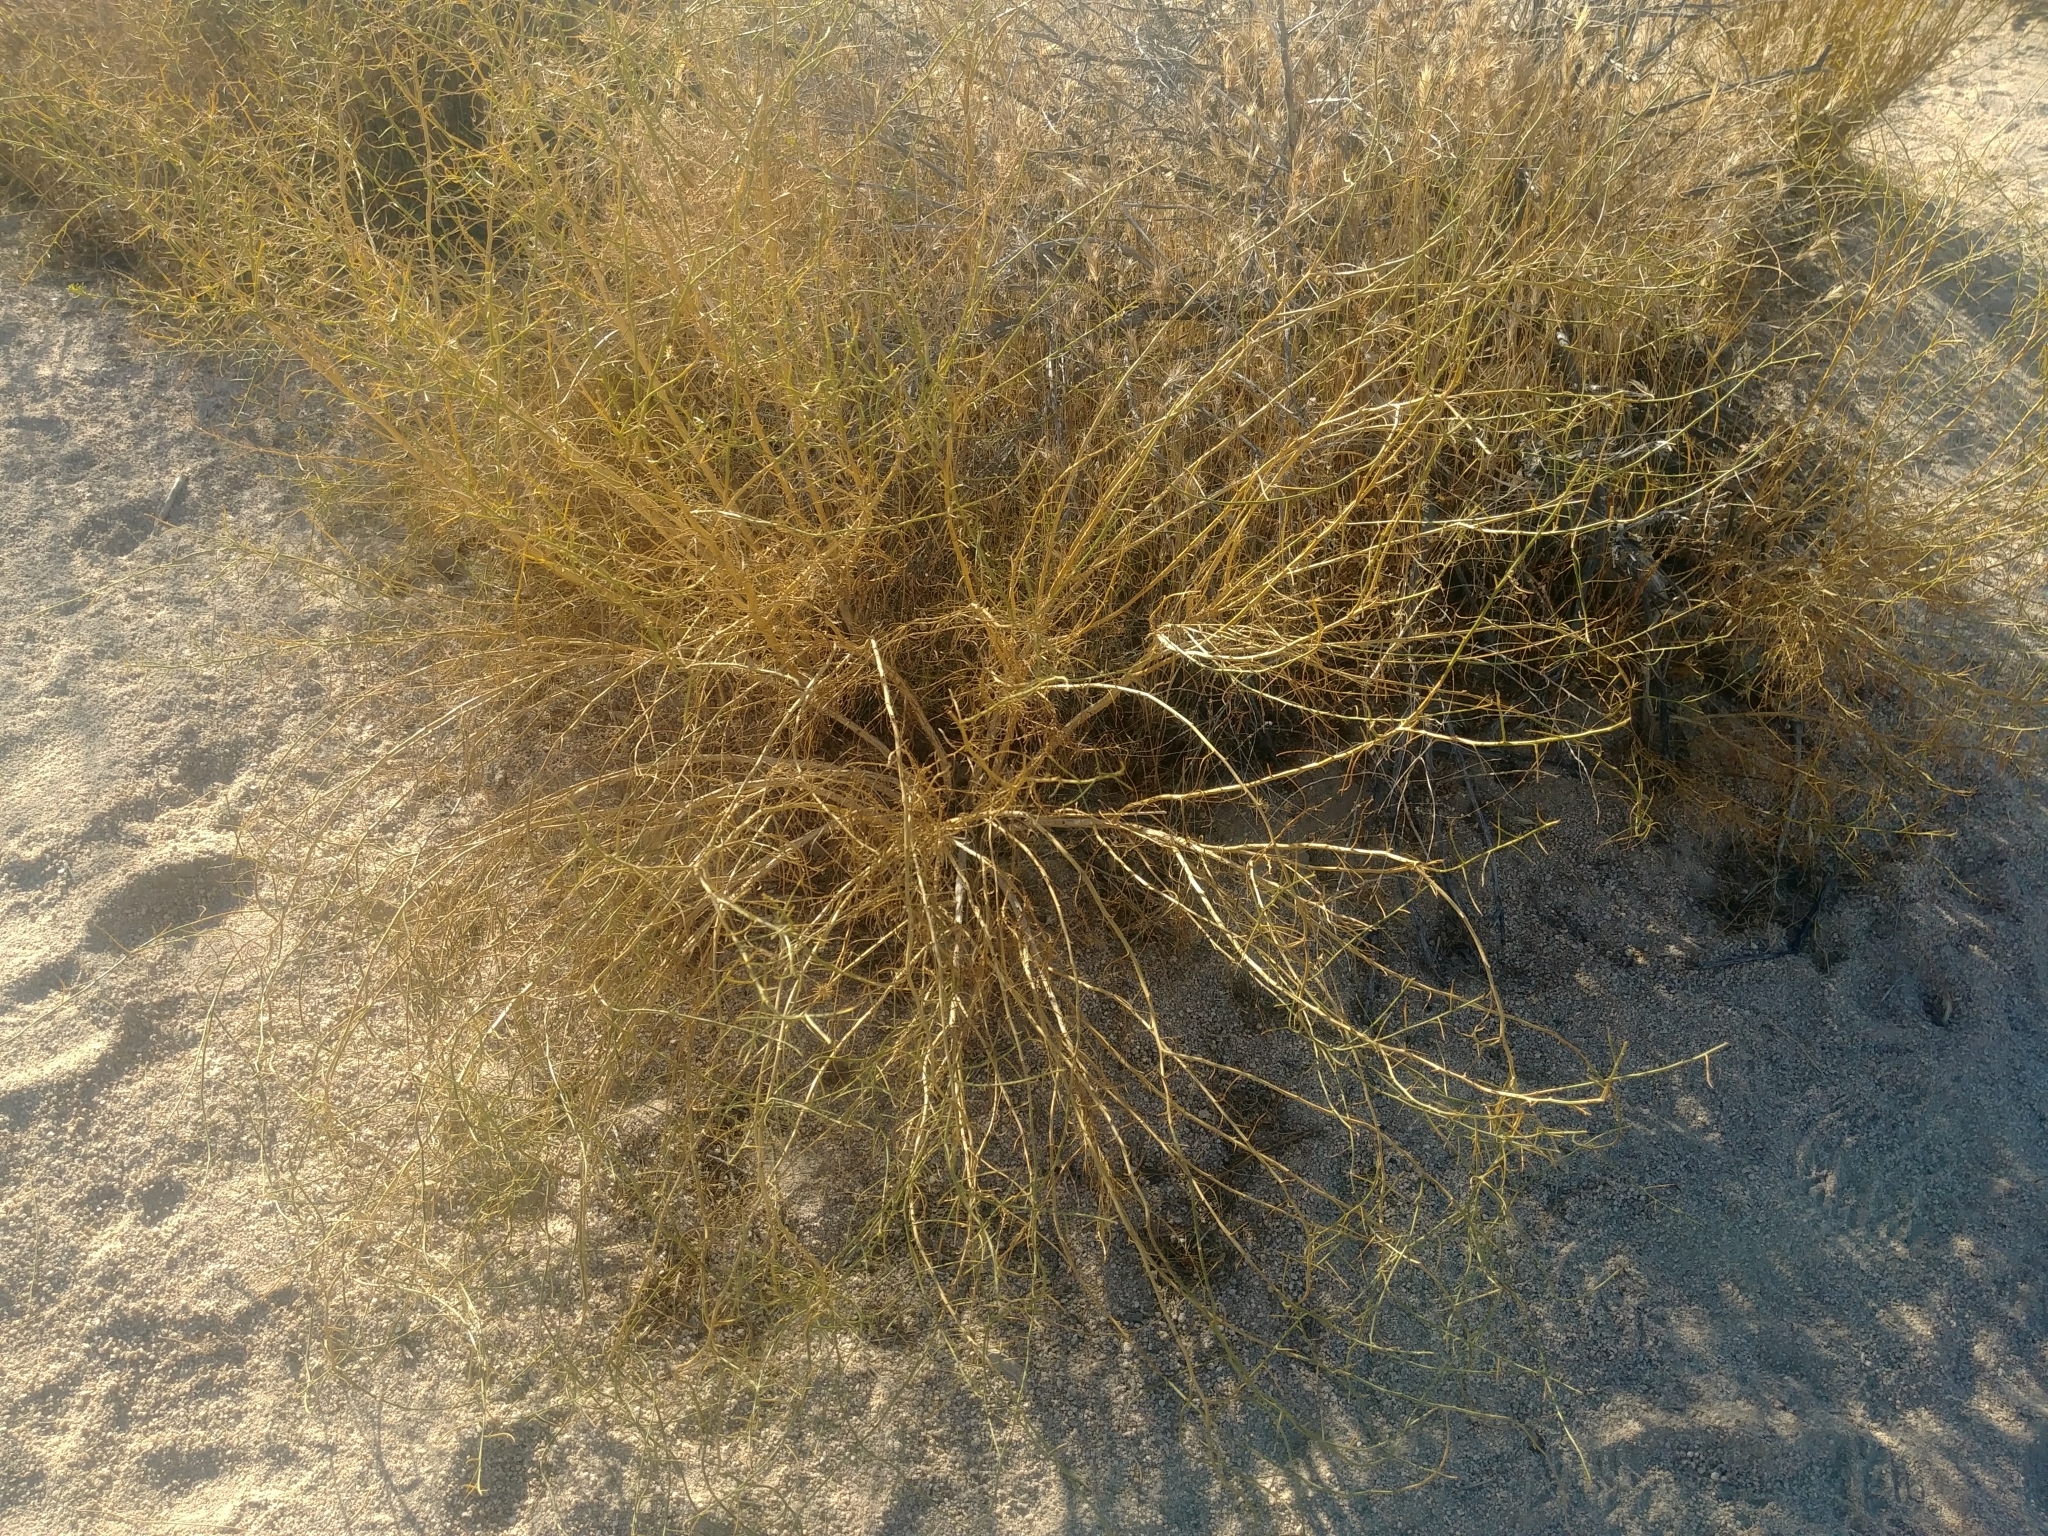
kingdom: Plantae
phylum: Tracheophyta
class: Magnoliopsida
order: Asterales
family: Asteraceae
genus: Ambrosia
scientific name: Ambrosia salsola
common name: Burrobrush
